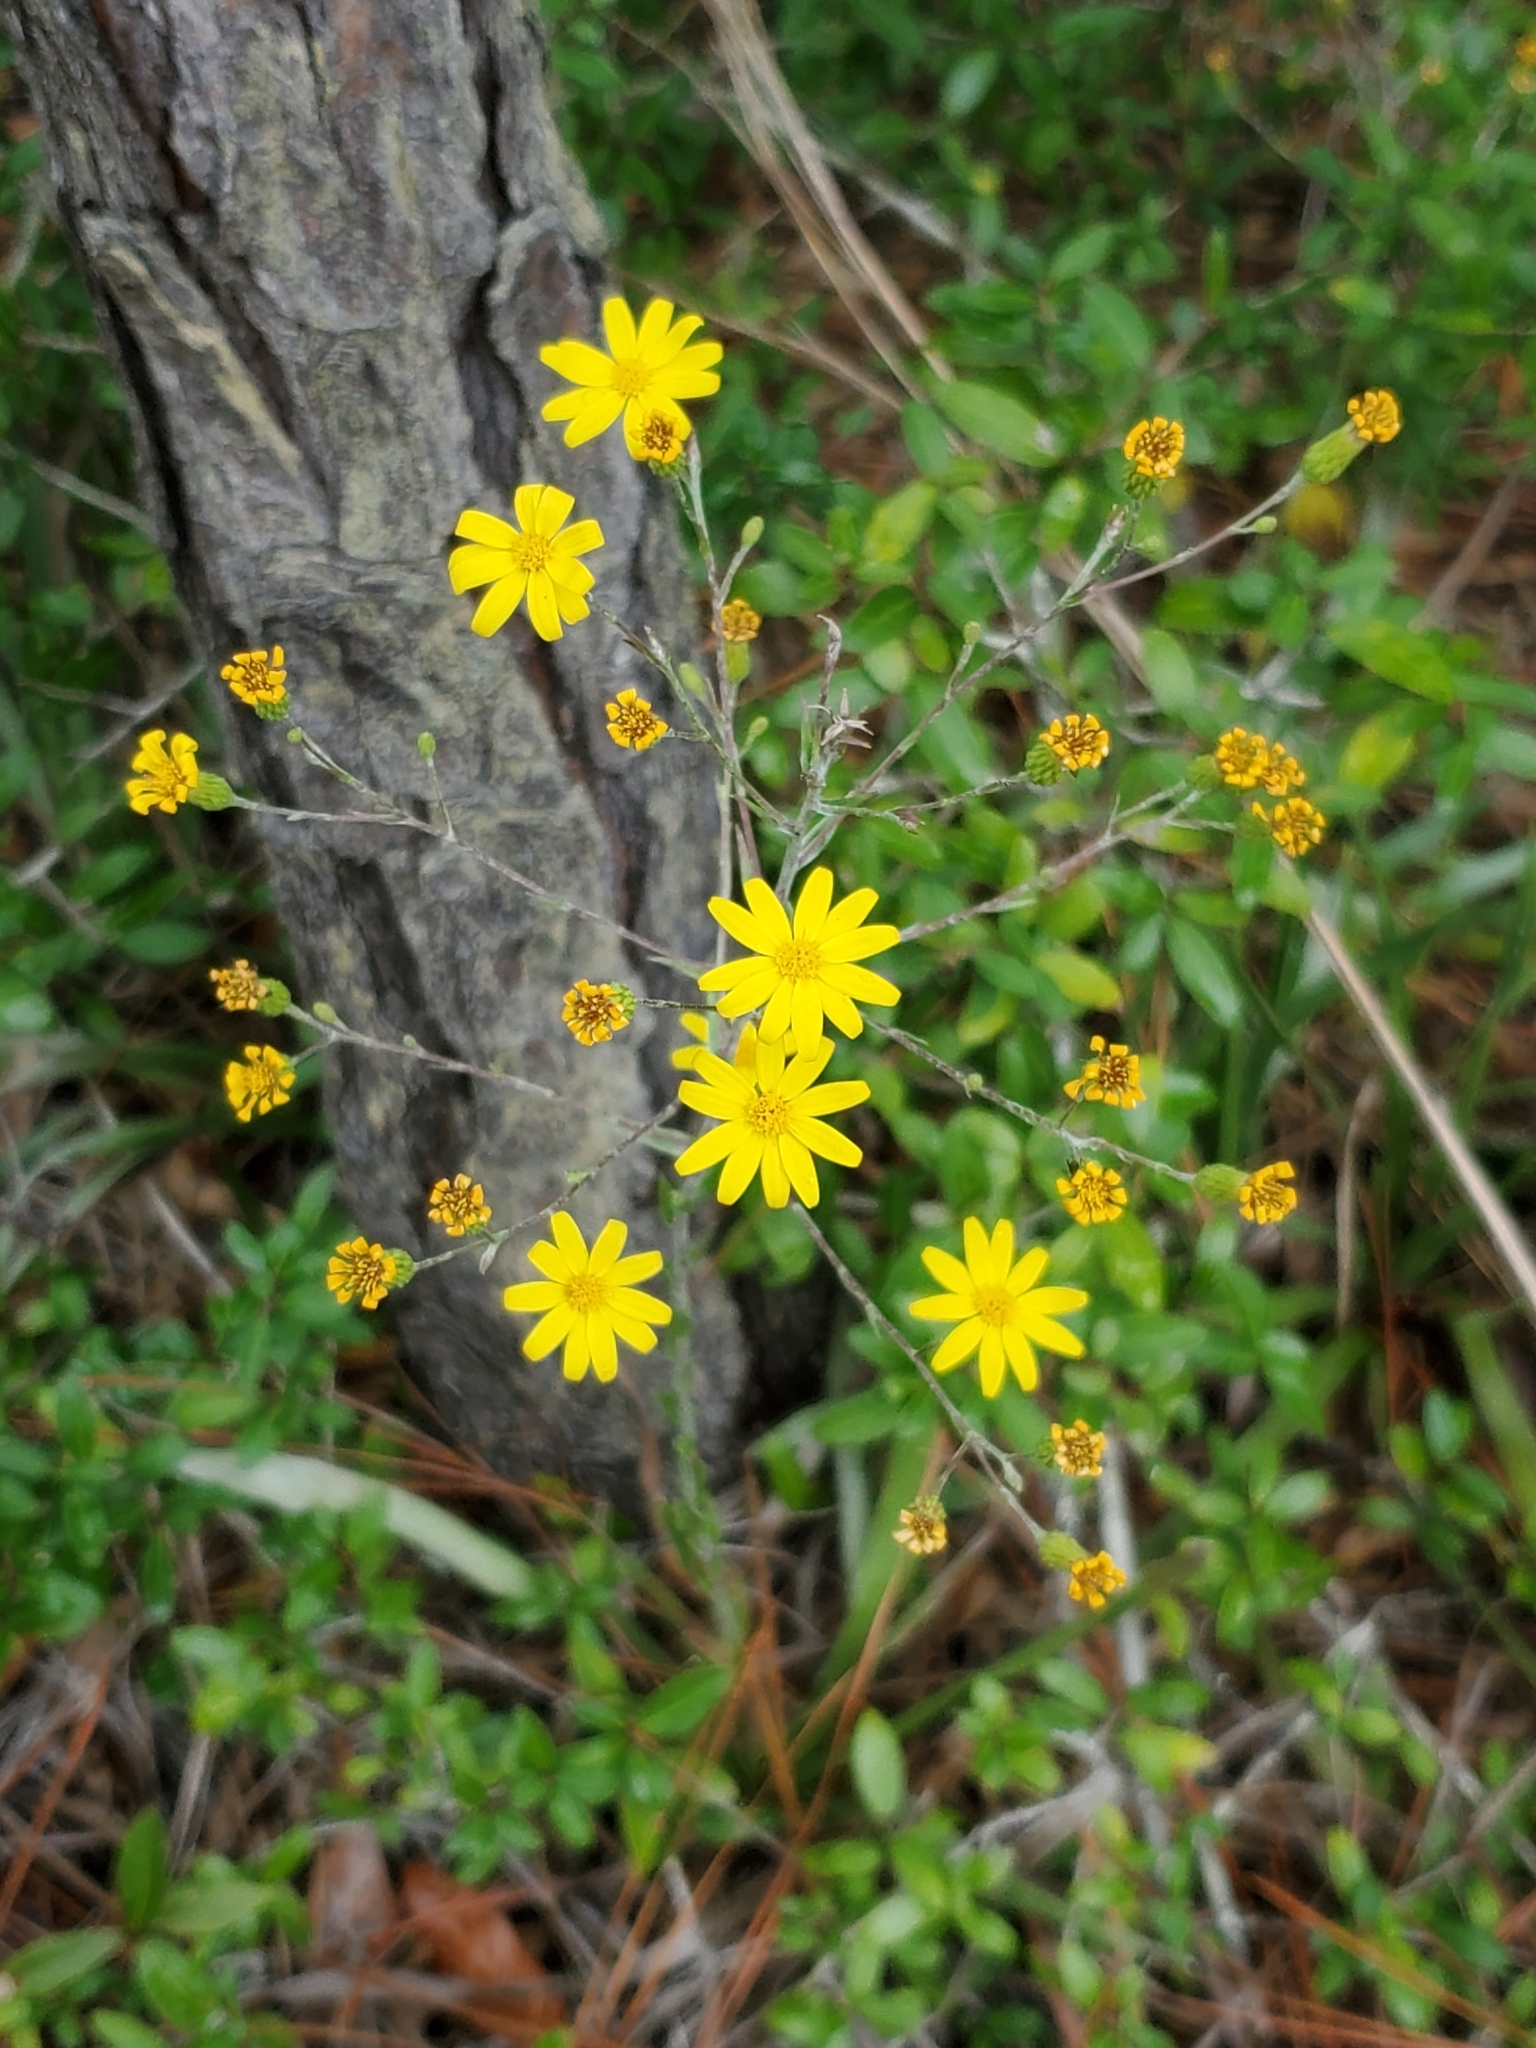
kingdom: Plantae
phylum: Tracheophyta
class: Magnoliopsida
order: Asterales
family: Asteraceae
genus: Pityopsis
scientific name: Pityopsis graminifolia
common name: Grass-leaf golden-aster
